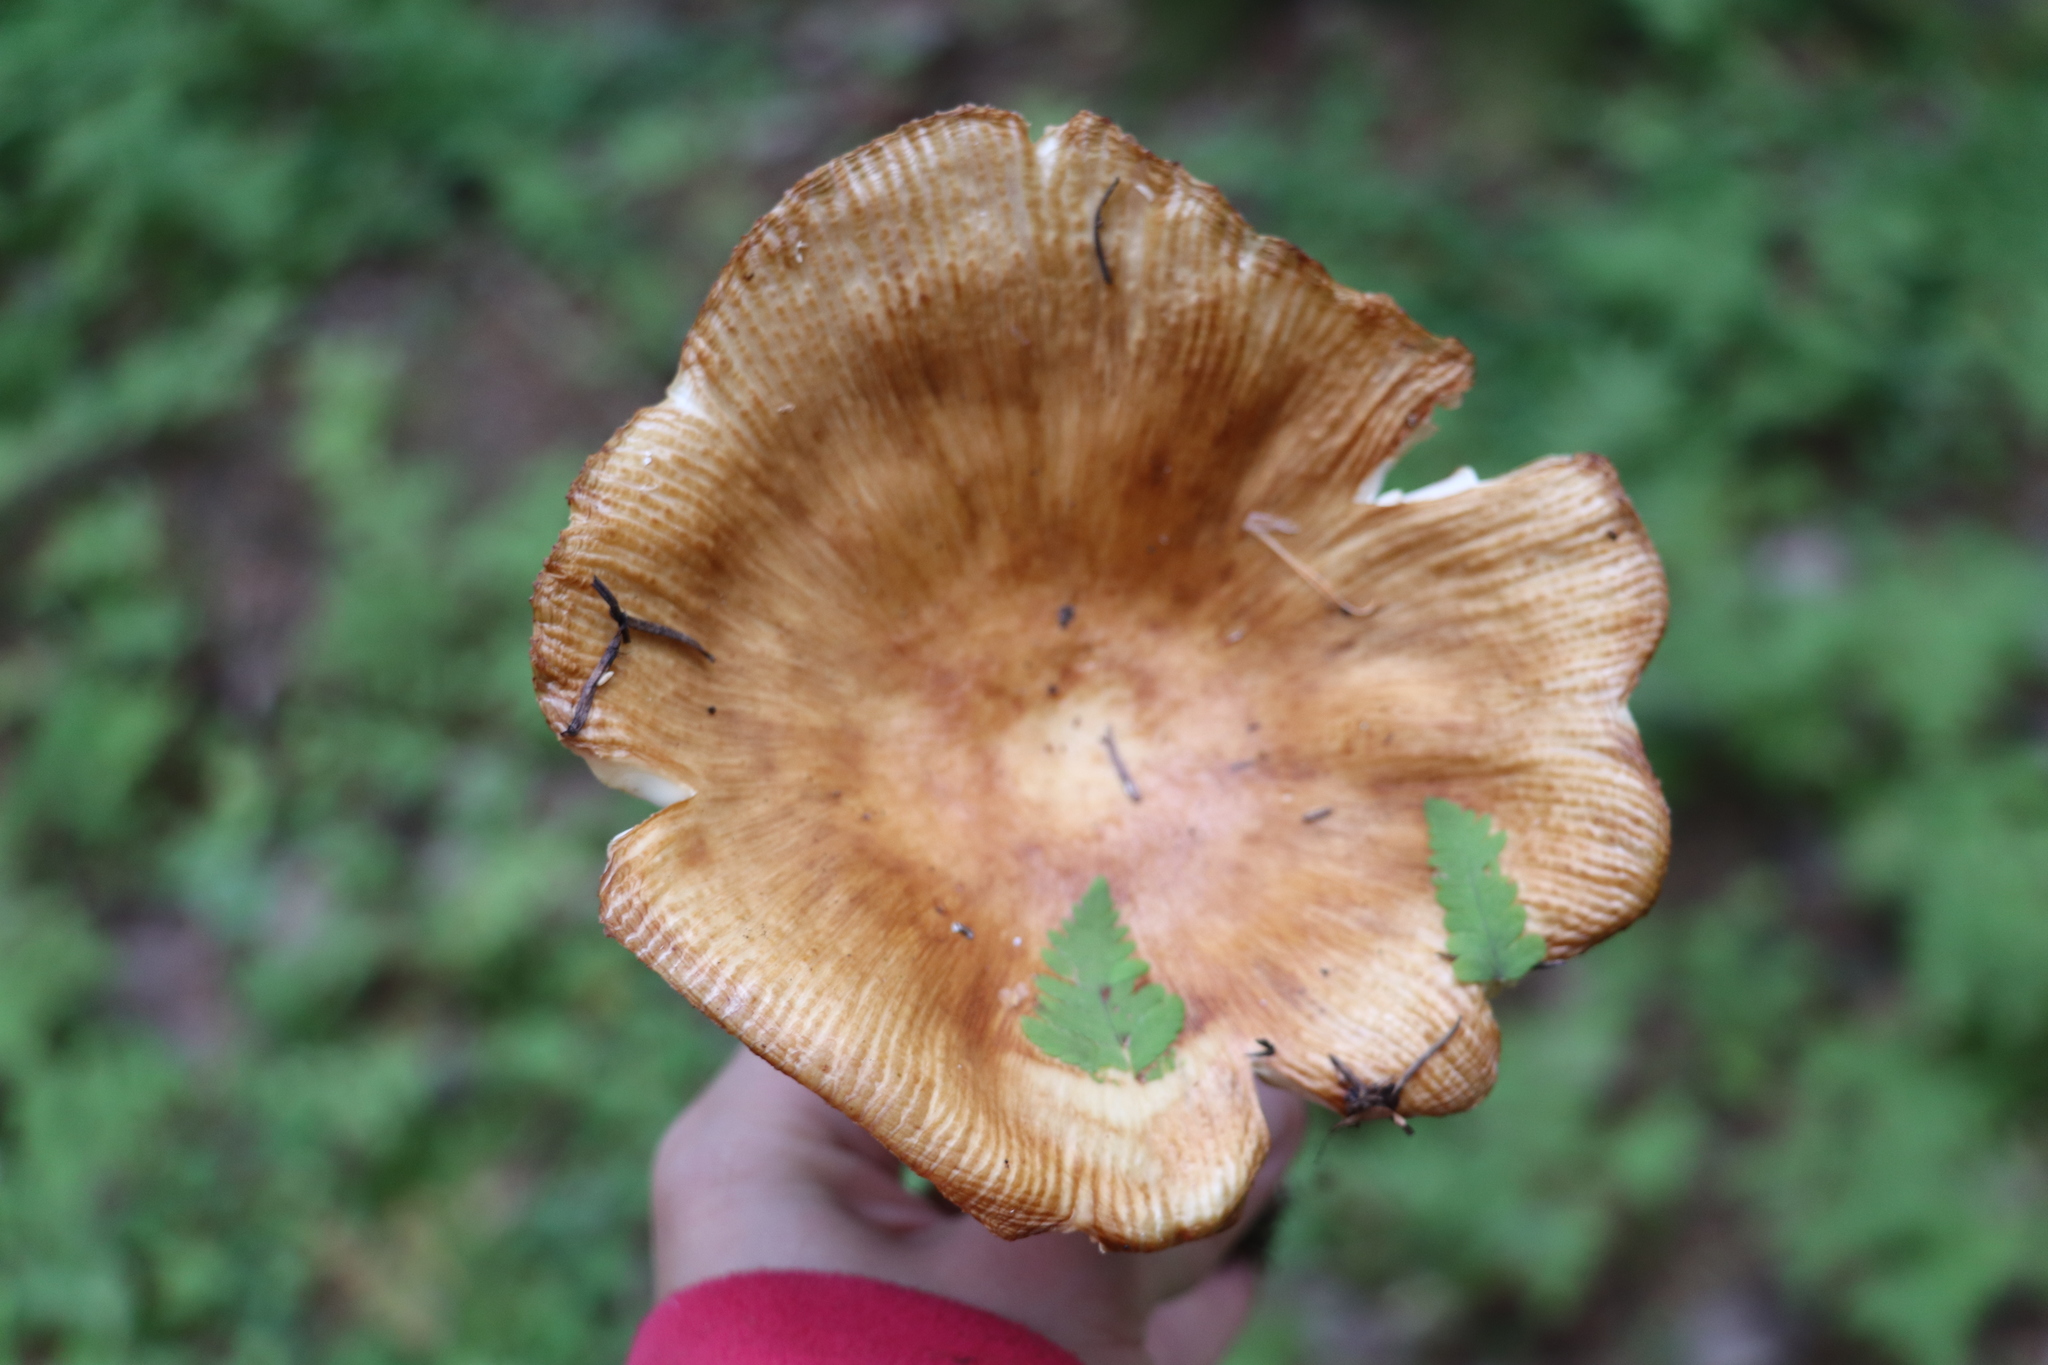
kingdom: Fungi
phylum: Basidiomycota
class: Agaricomycetes
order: Russulales
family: Russulaceae
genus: Russula
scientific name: Russula foetens
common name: Foetid russula
